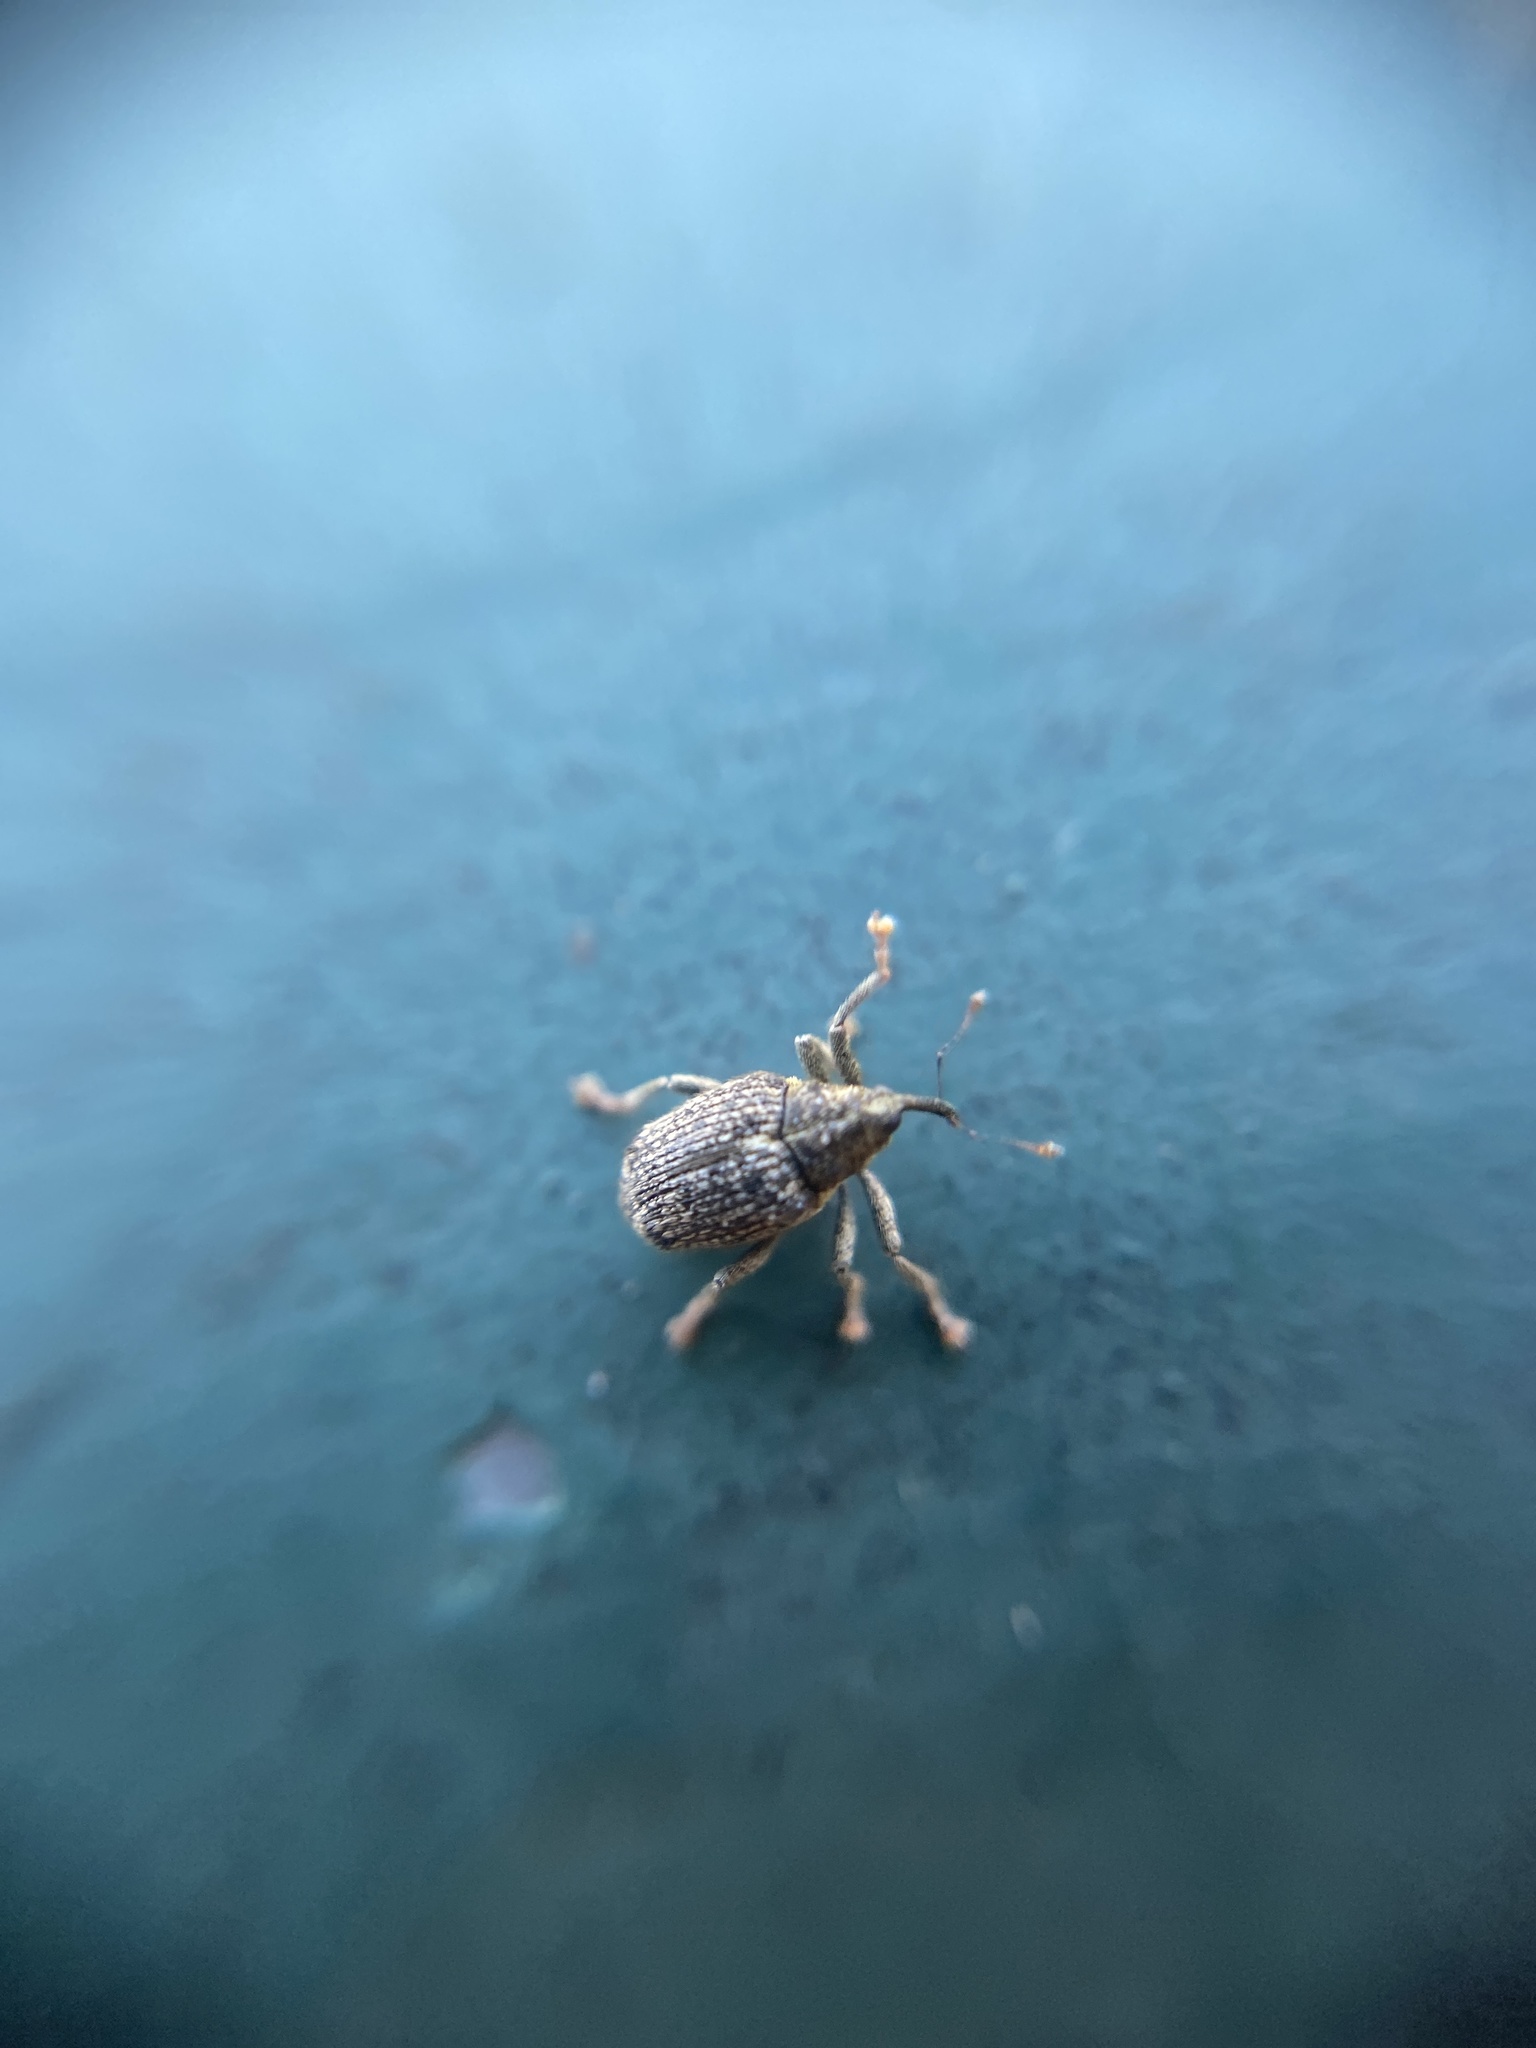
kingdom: Animalia
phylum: Arthropoda
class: Insecta
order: Coleoptera
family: Curculionidae
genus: Ceutorhynchus
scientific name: Ceutorhynchus pallidactylus
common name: Cabbage stem weavil
